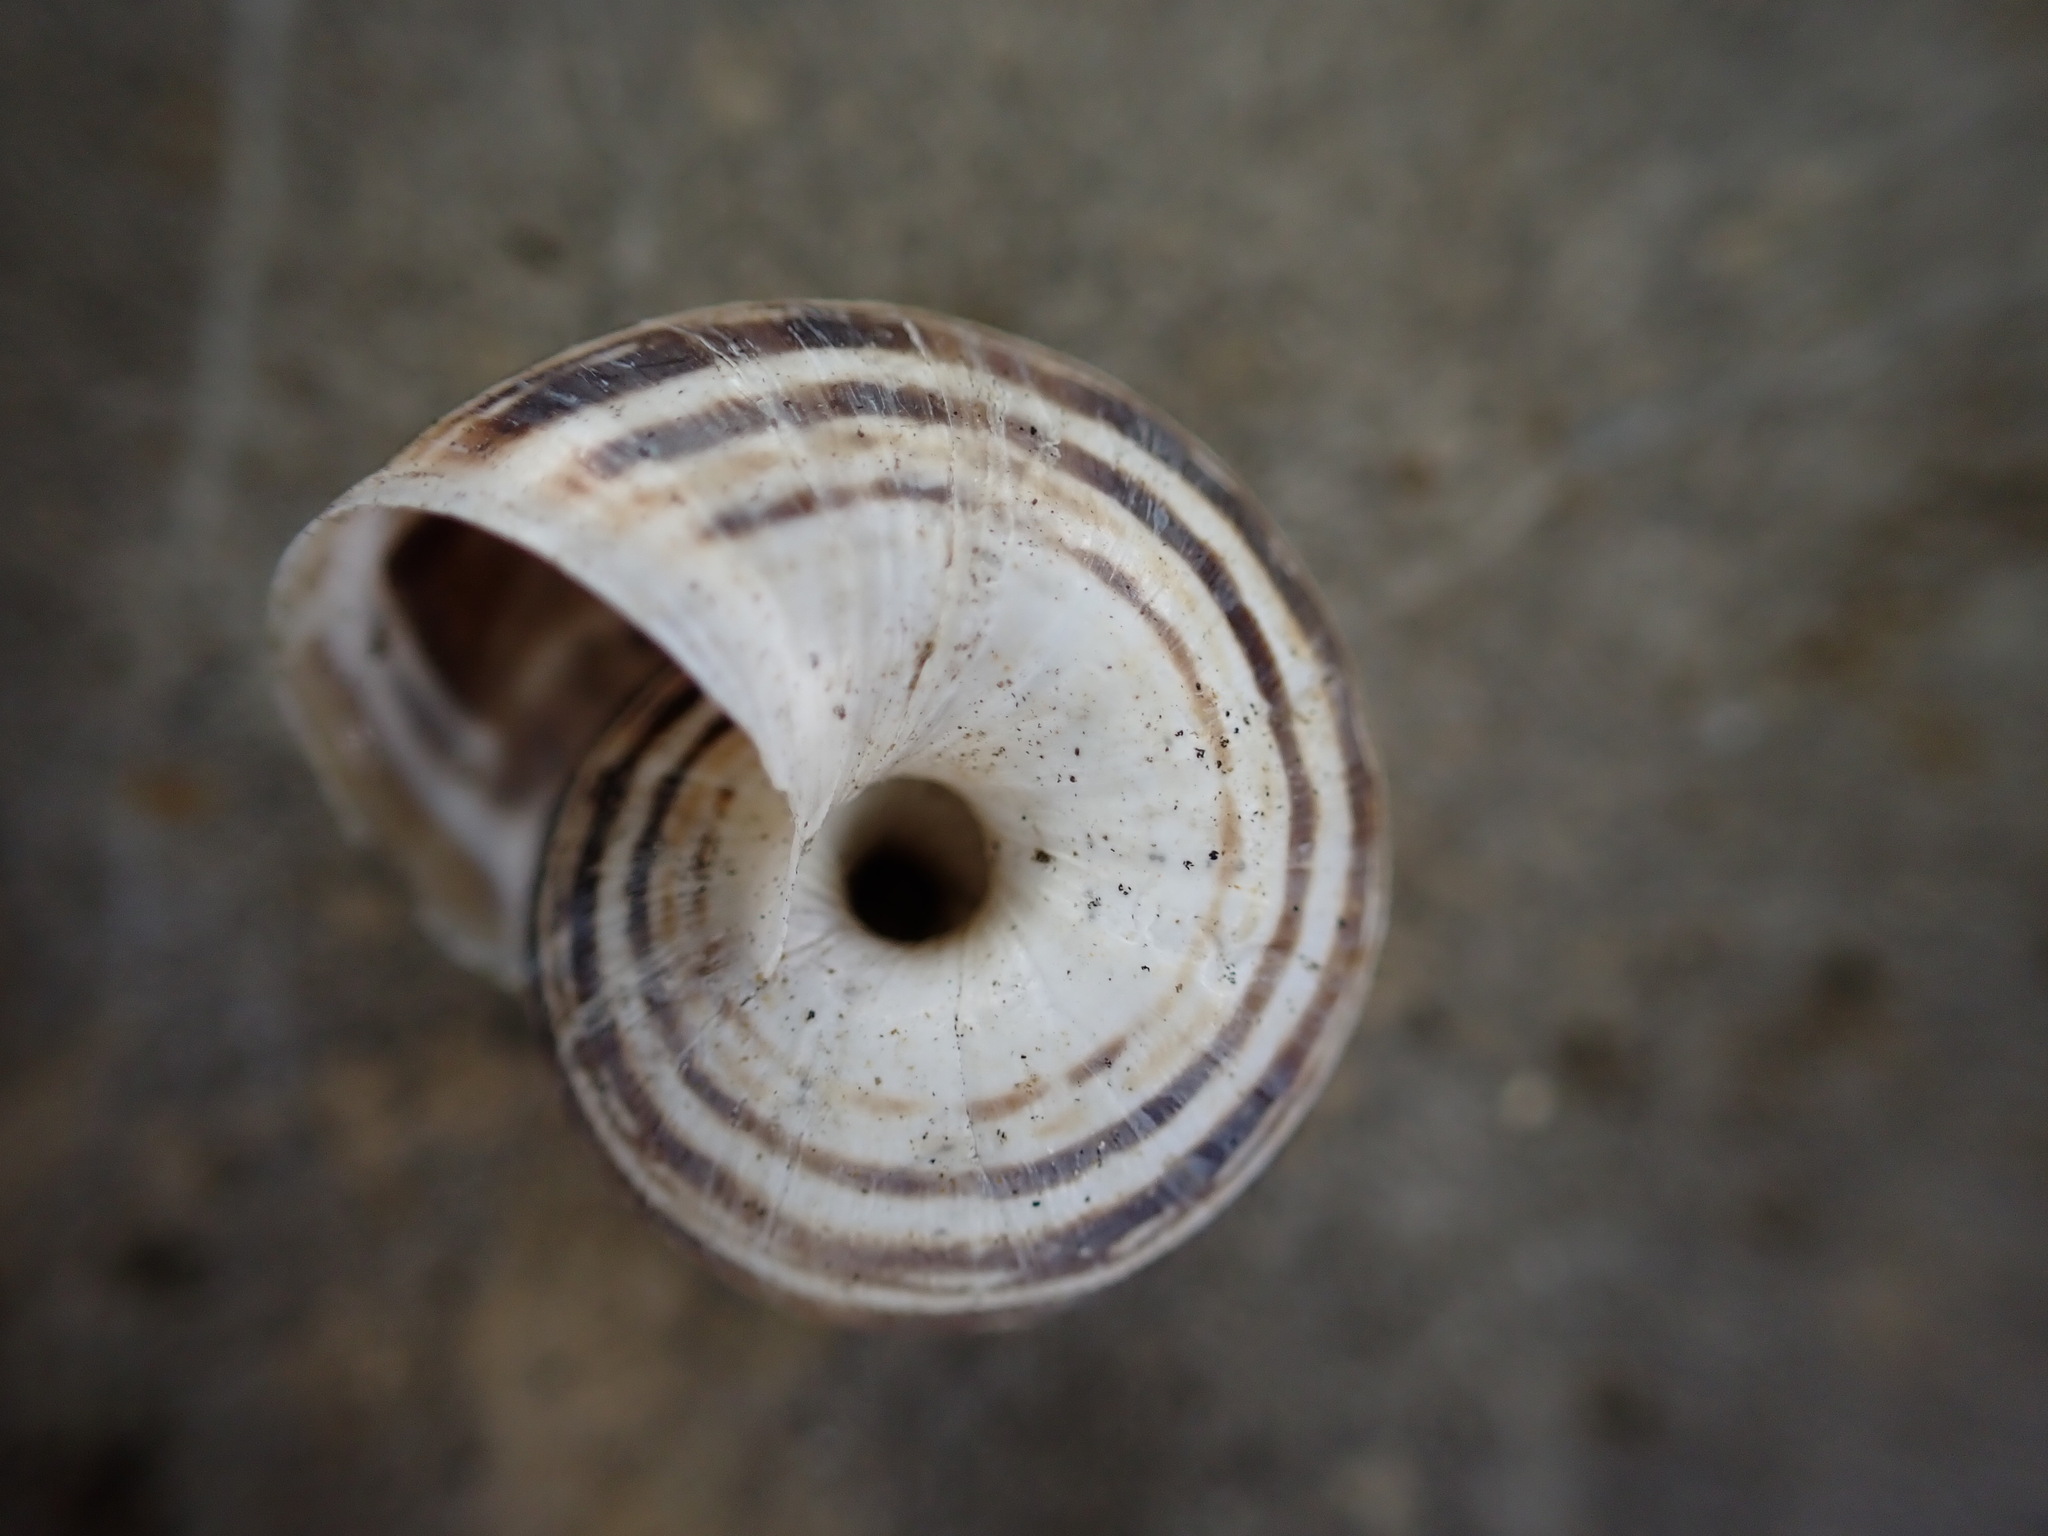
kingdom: Animalia
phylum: Mollusca
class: Gastropoda
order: Stylommatophora
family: Geomitridae
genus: Xerosecta
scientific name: Xerosecta cespitum
